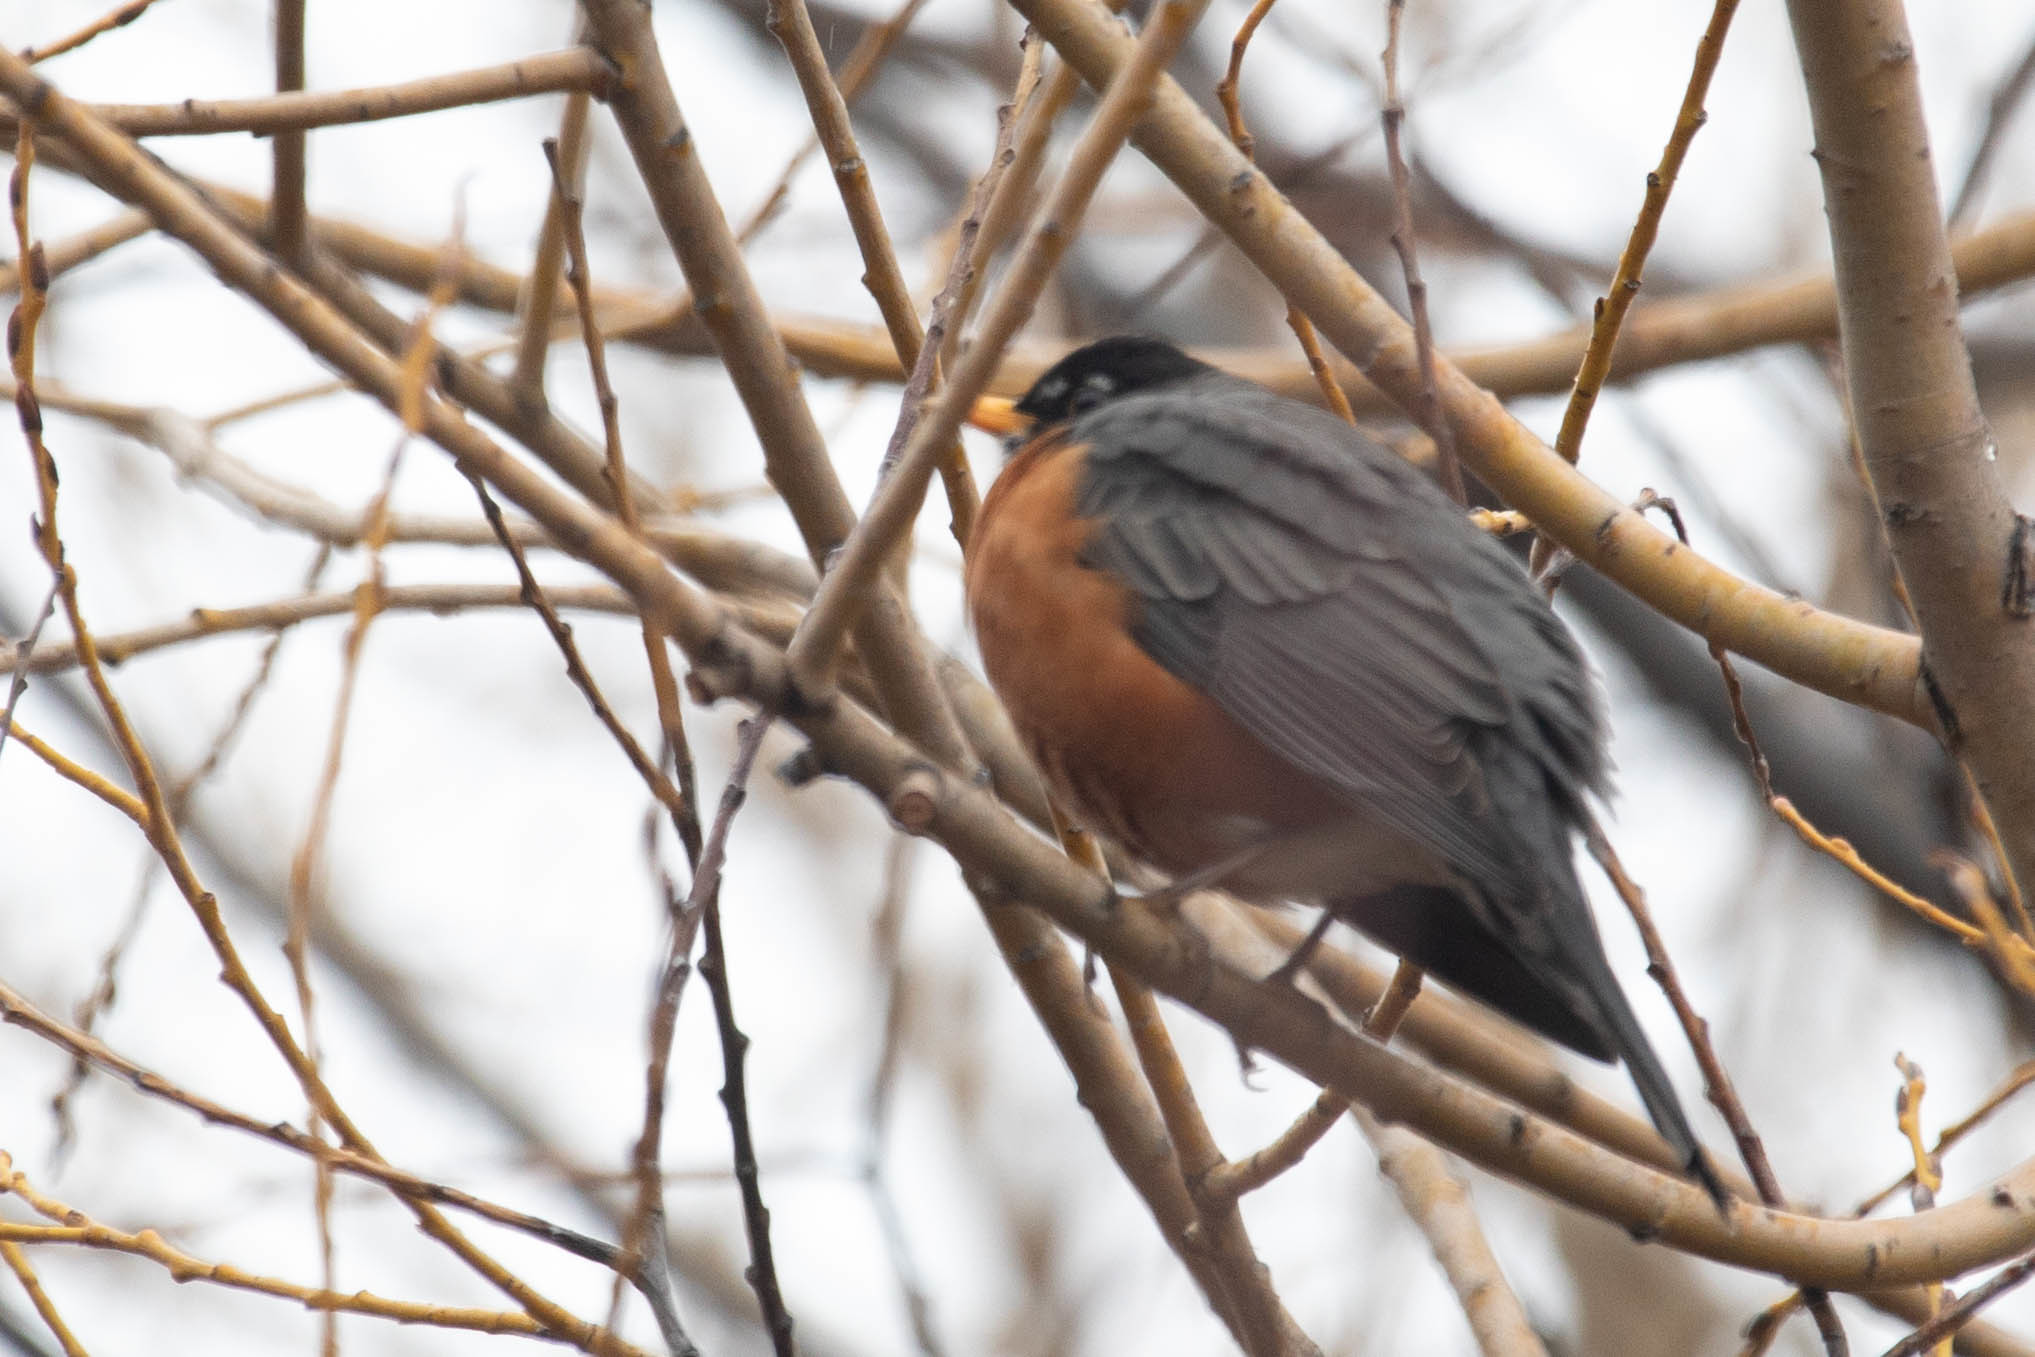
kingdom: Animalia
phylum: Chordata
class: Aves
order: Passeriformes
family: Turdidae
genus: Turdus
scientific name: Turdus migratorius
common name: American robin
